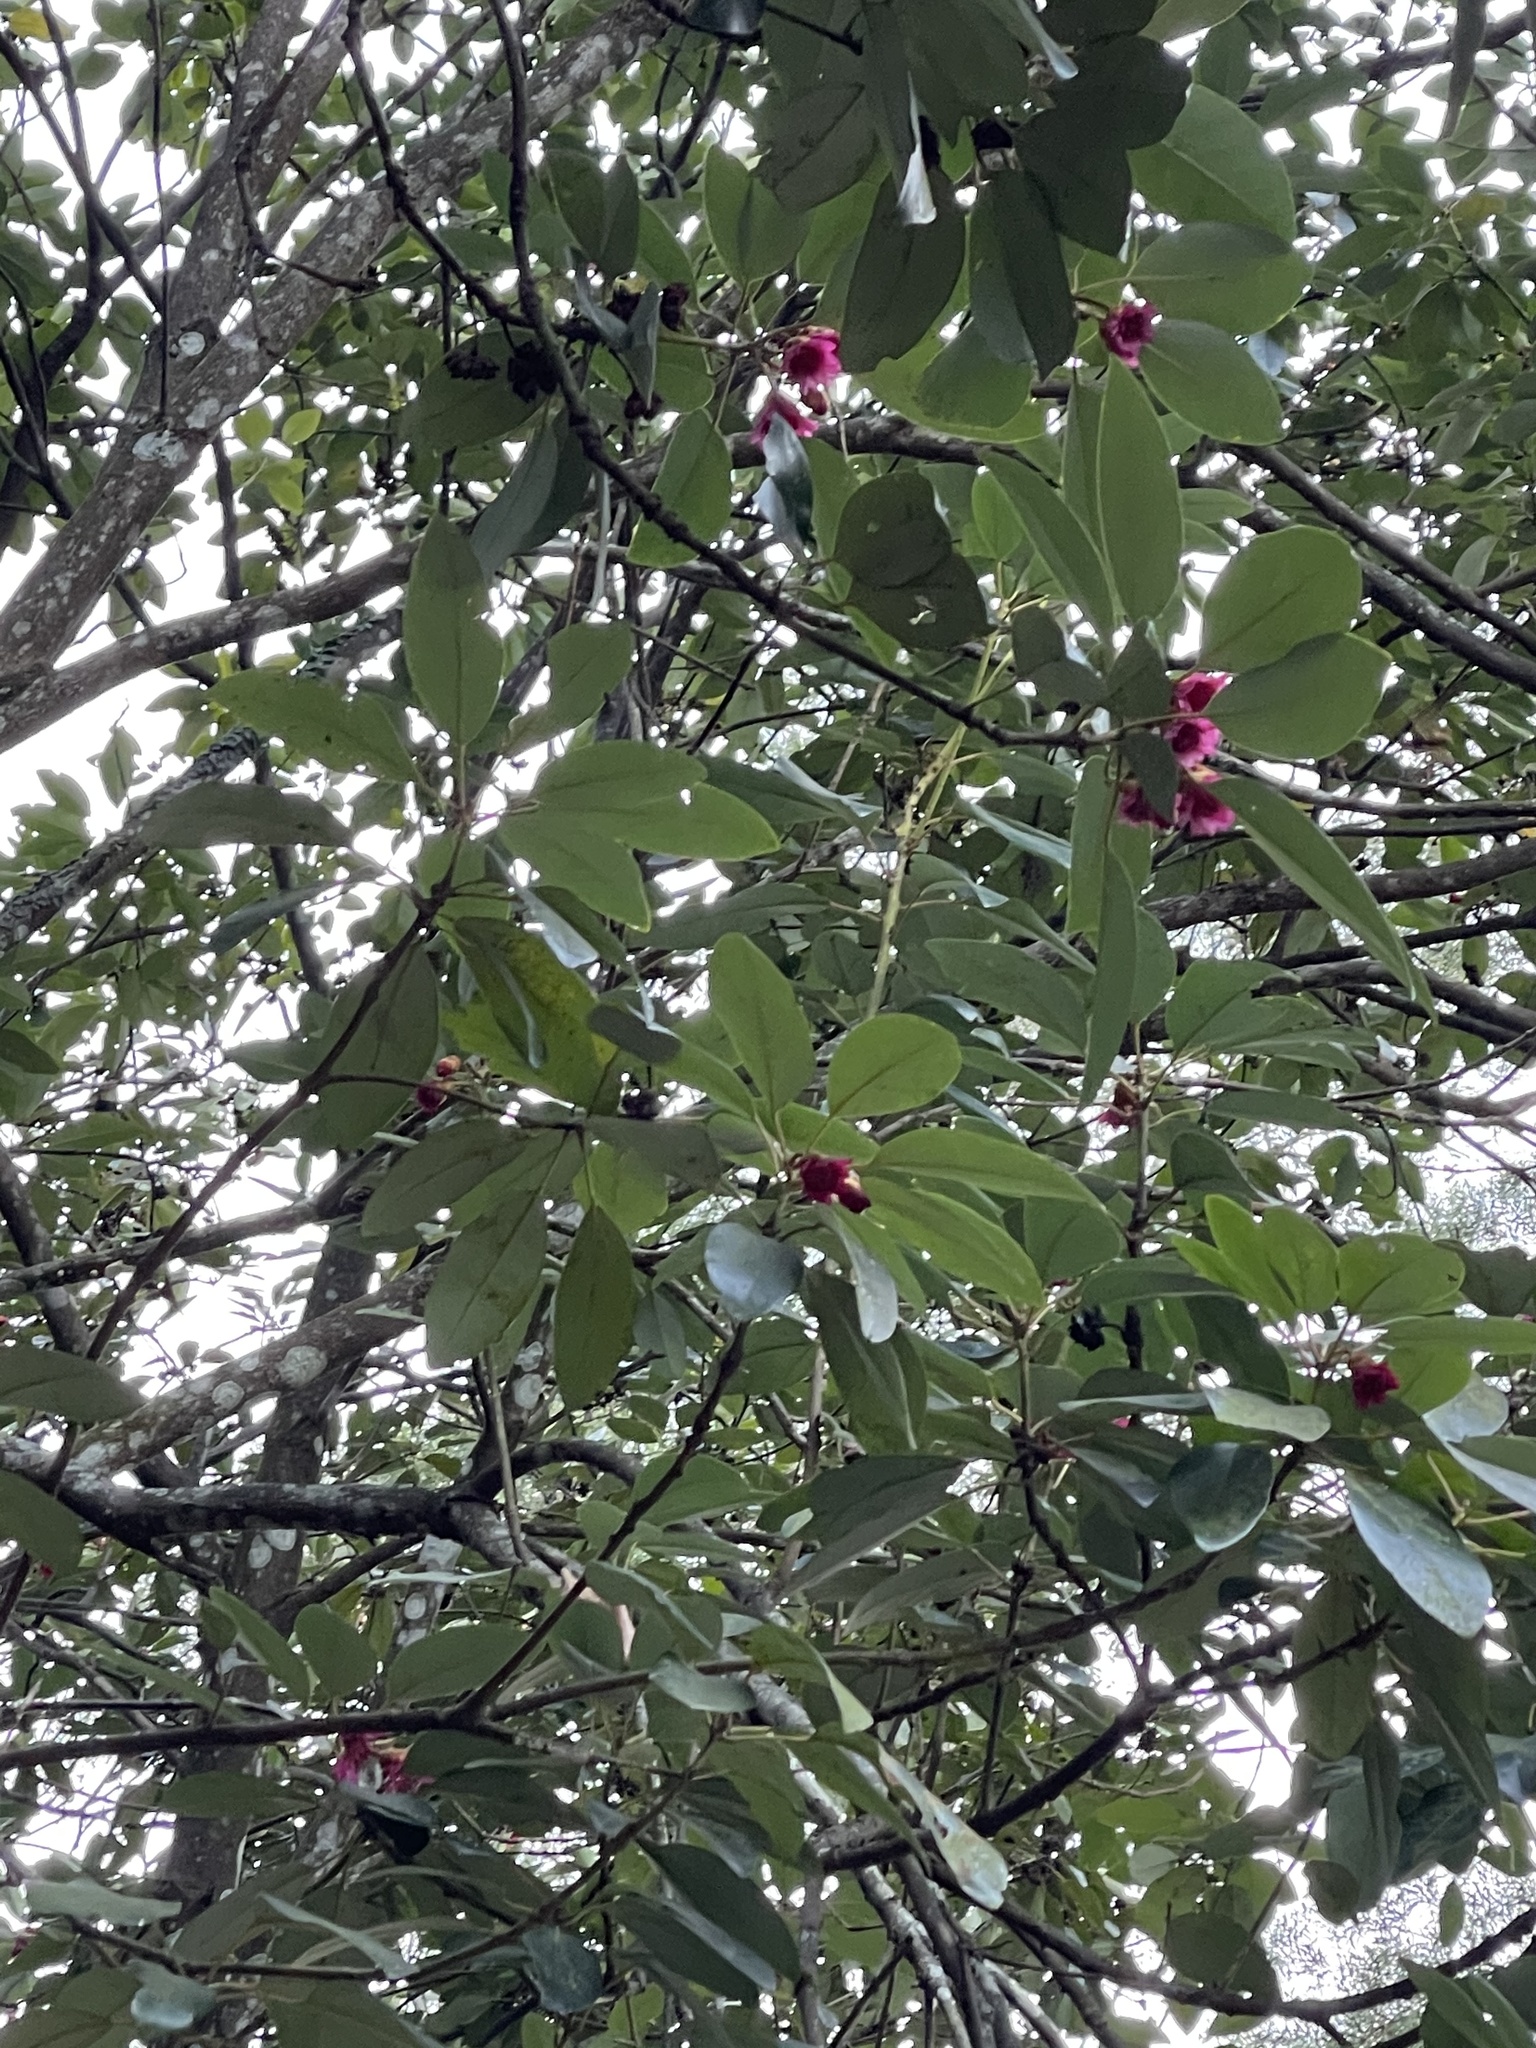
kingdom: Plantae
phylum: Tracheophyta
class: Magnoliopsida
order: Saxifragales
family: Hamamelidaceae
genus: Rhodoleia
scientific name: Rhodoleia championii
